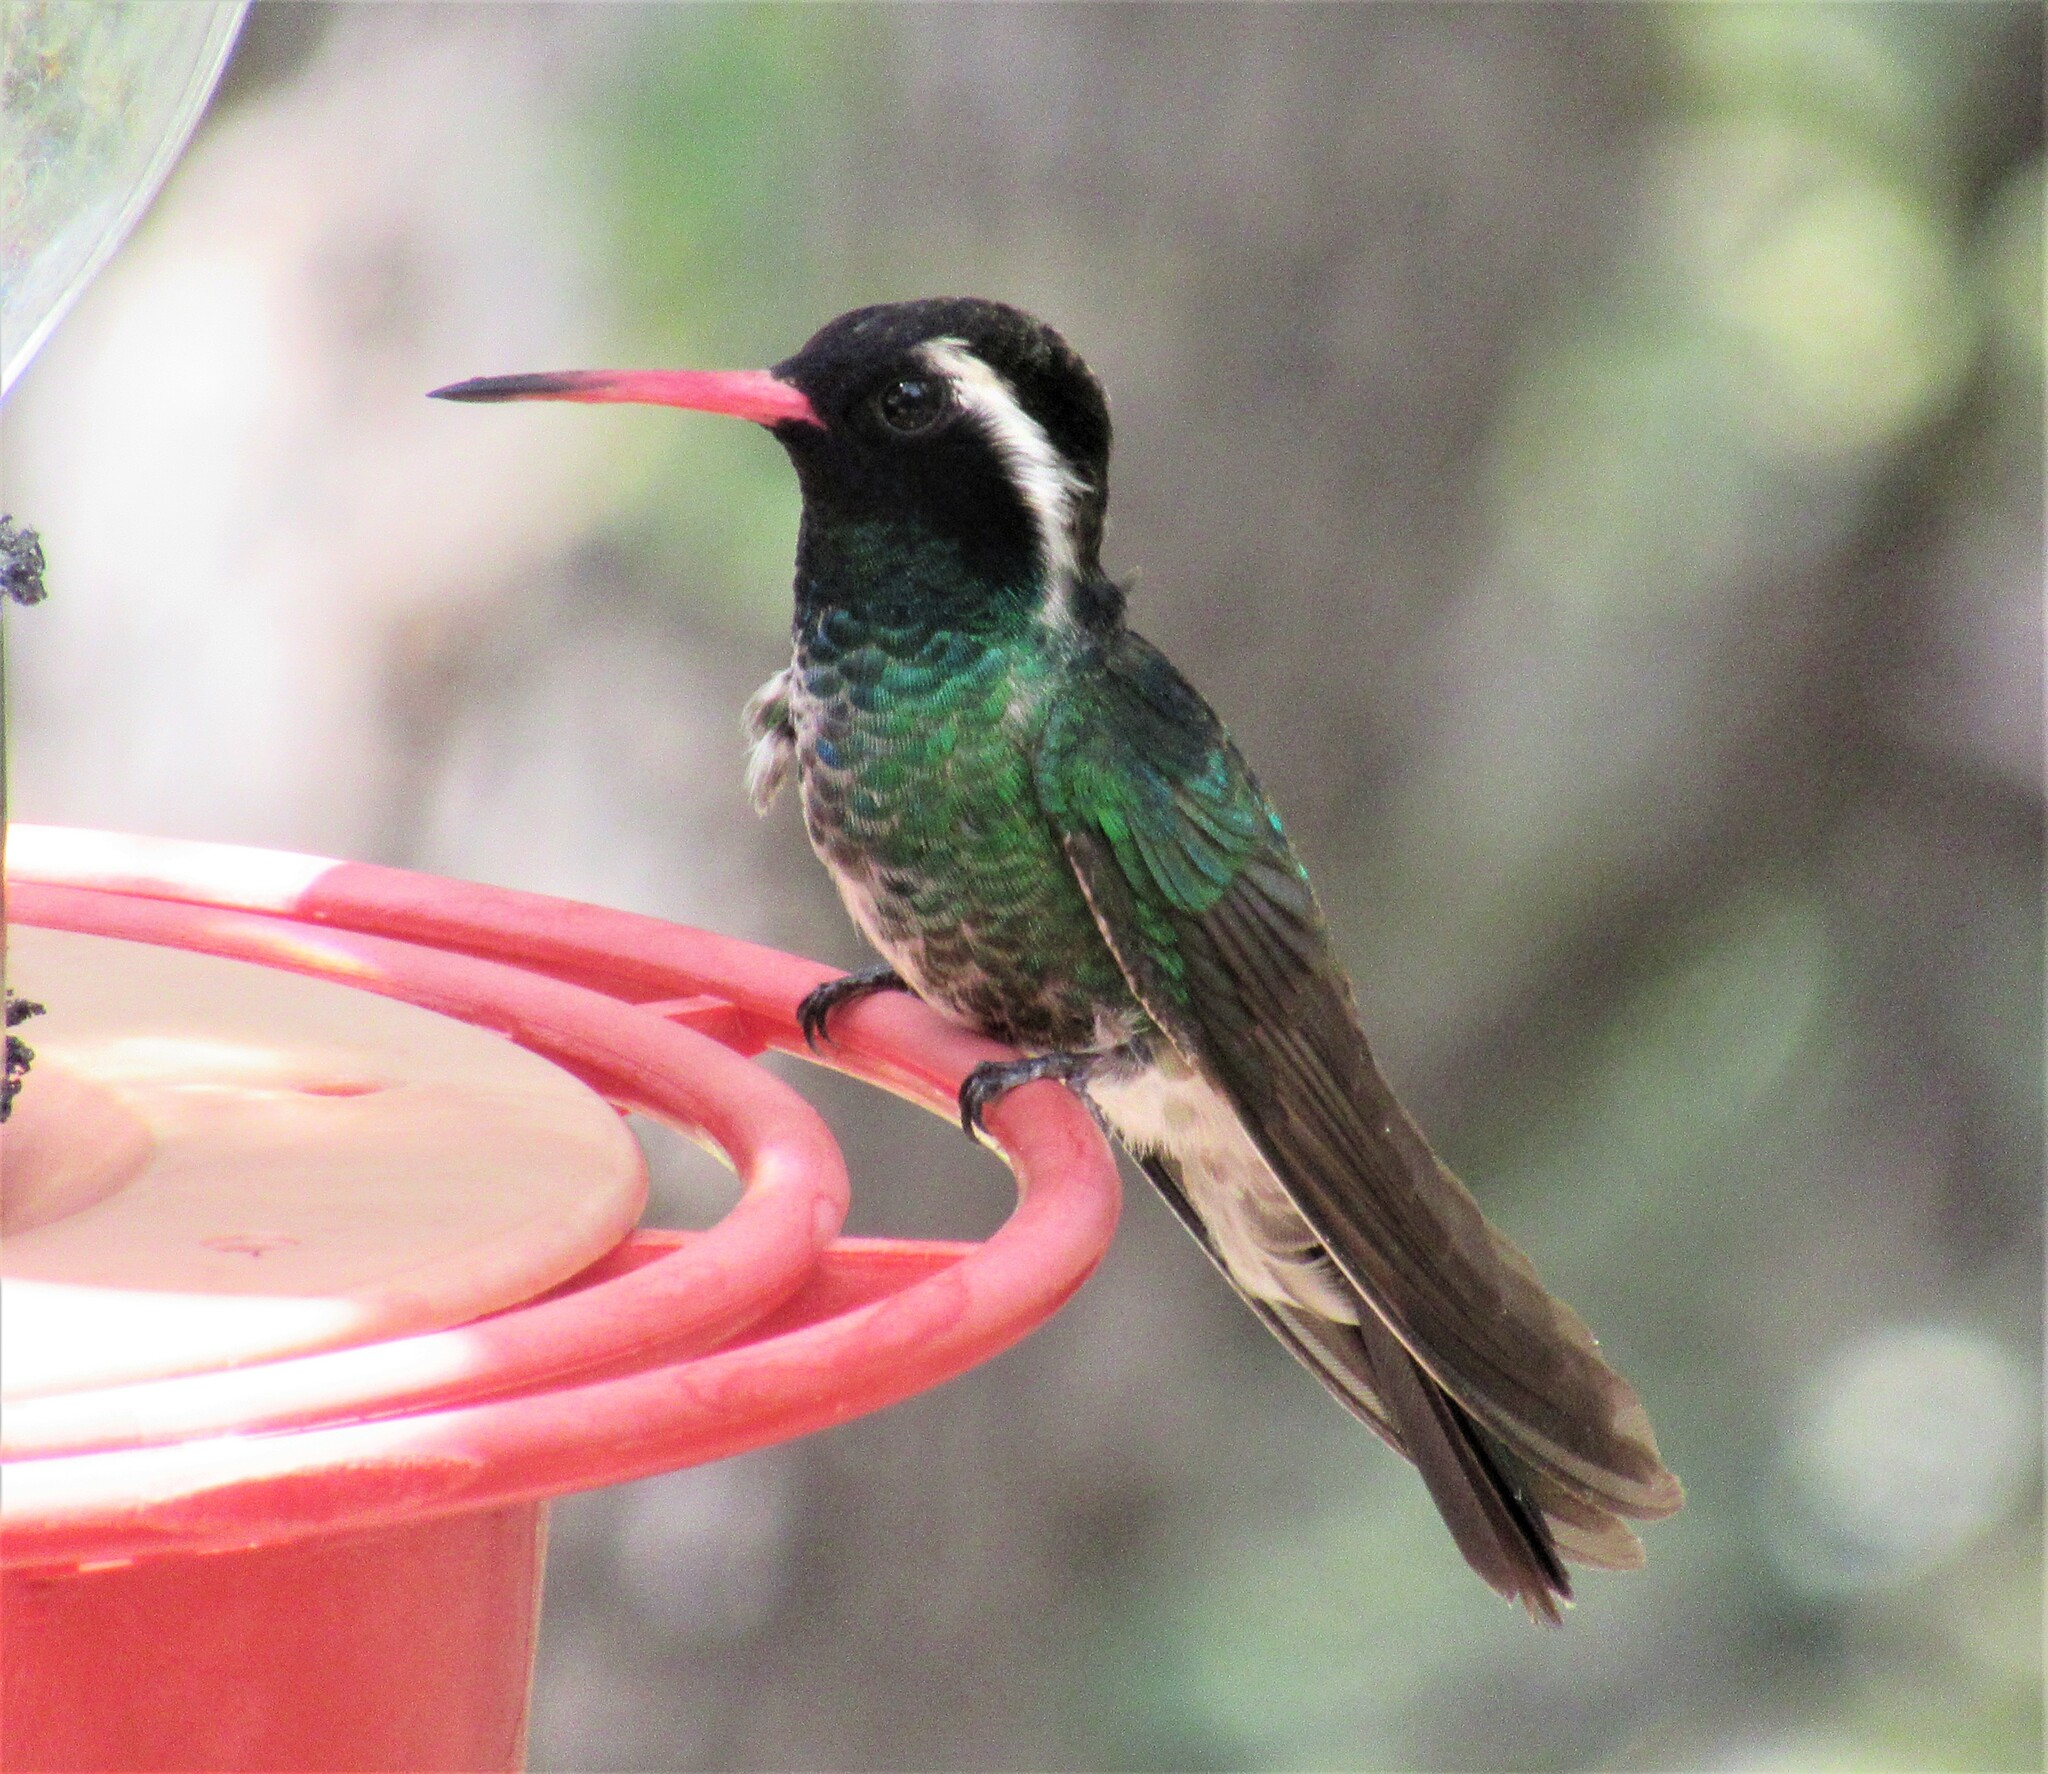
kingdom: Animalia
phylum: Chordata
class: Aves
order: Apodiformes
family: Trochilidae
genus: Basilinna
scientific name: Basilinna leucotis
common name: White-eared hummingbird
